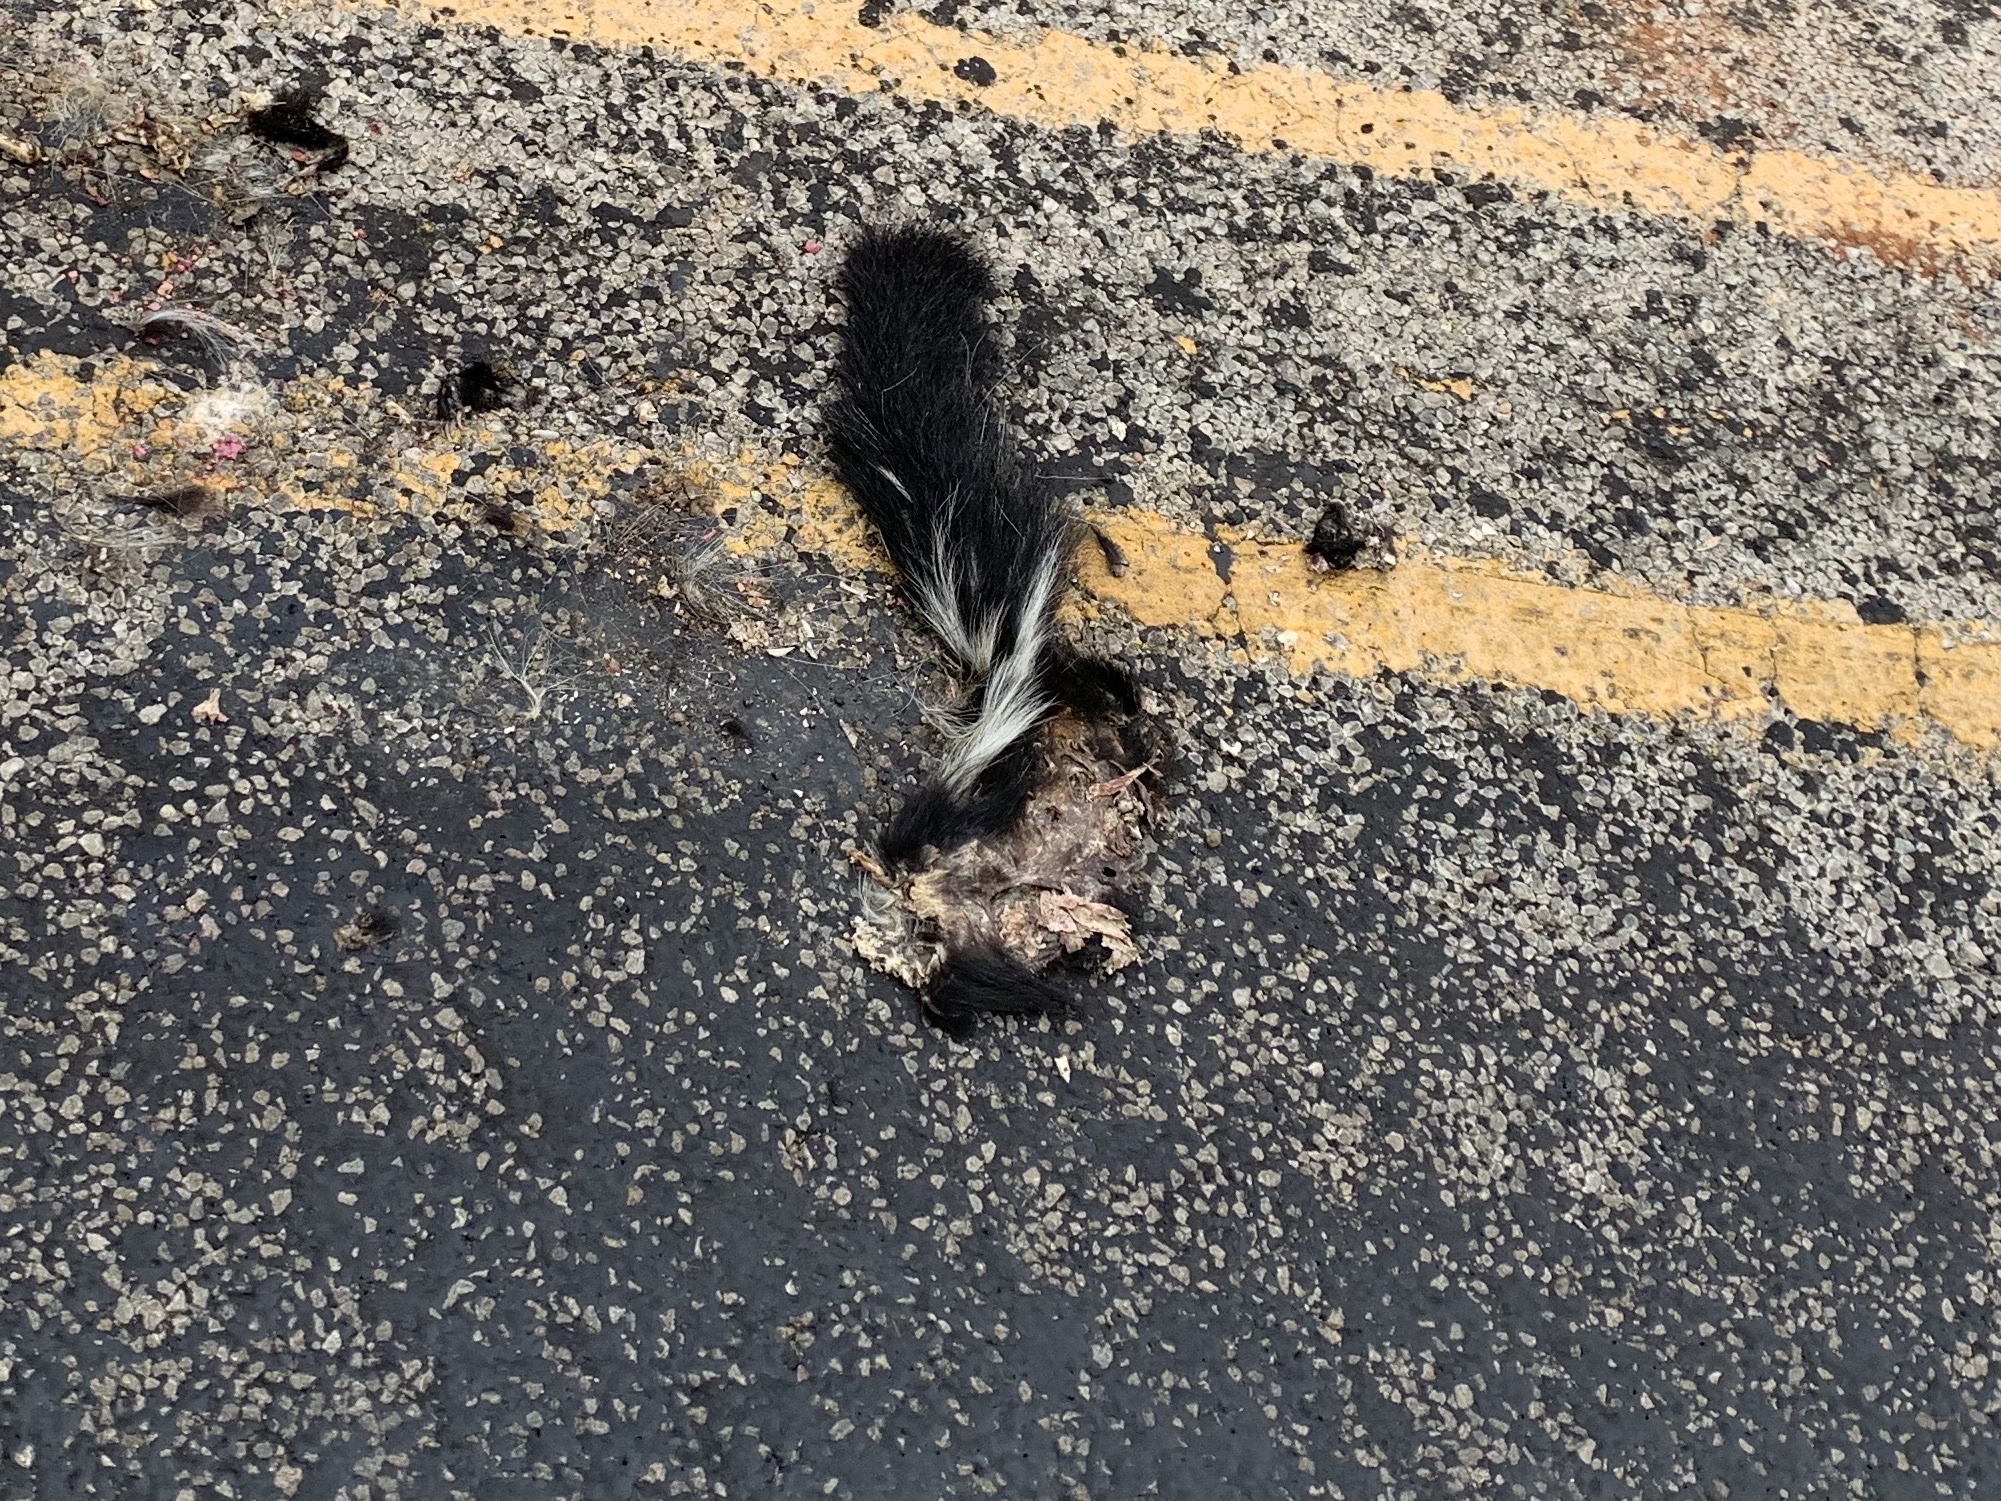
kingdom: Animalia
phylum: Chordata
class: Mammalia
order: Carnivora
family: Mephitidae
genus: Mephitis
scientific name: Mephitis mephitis
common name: Striped skunk
